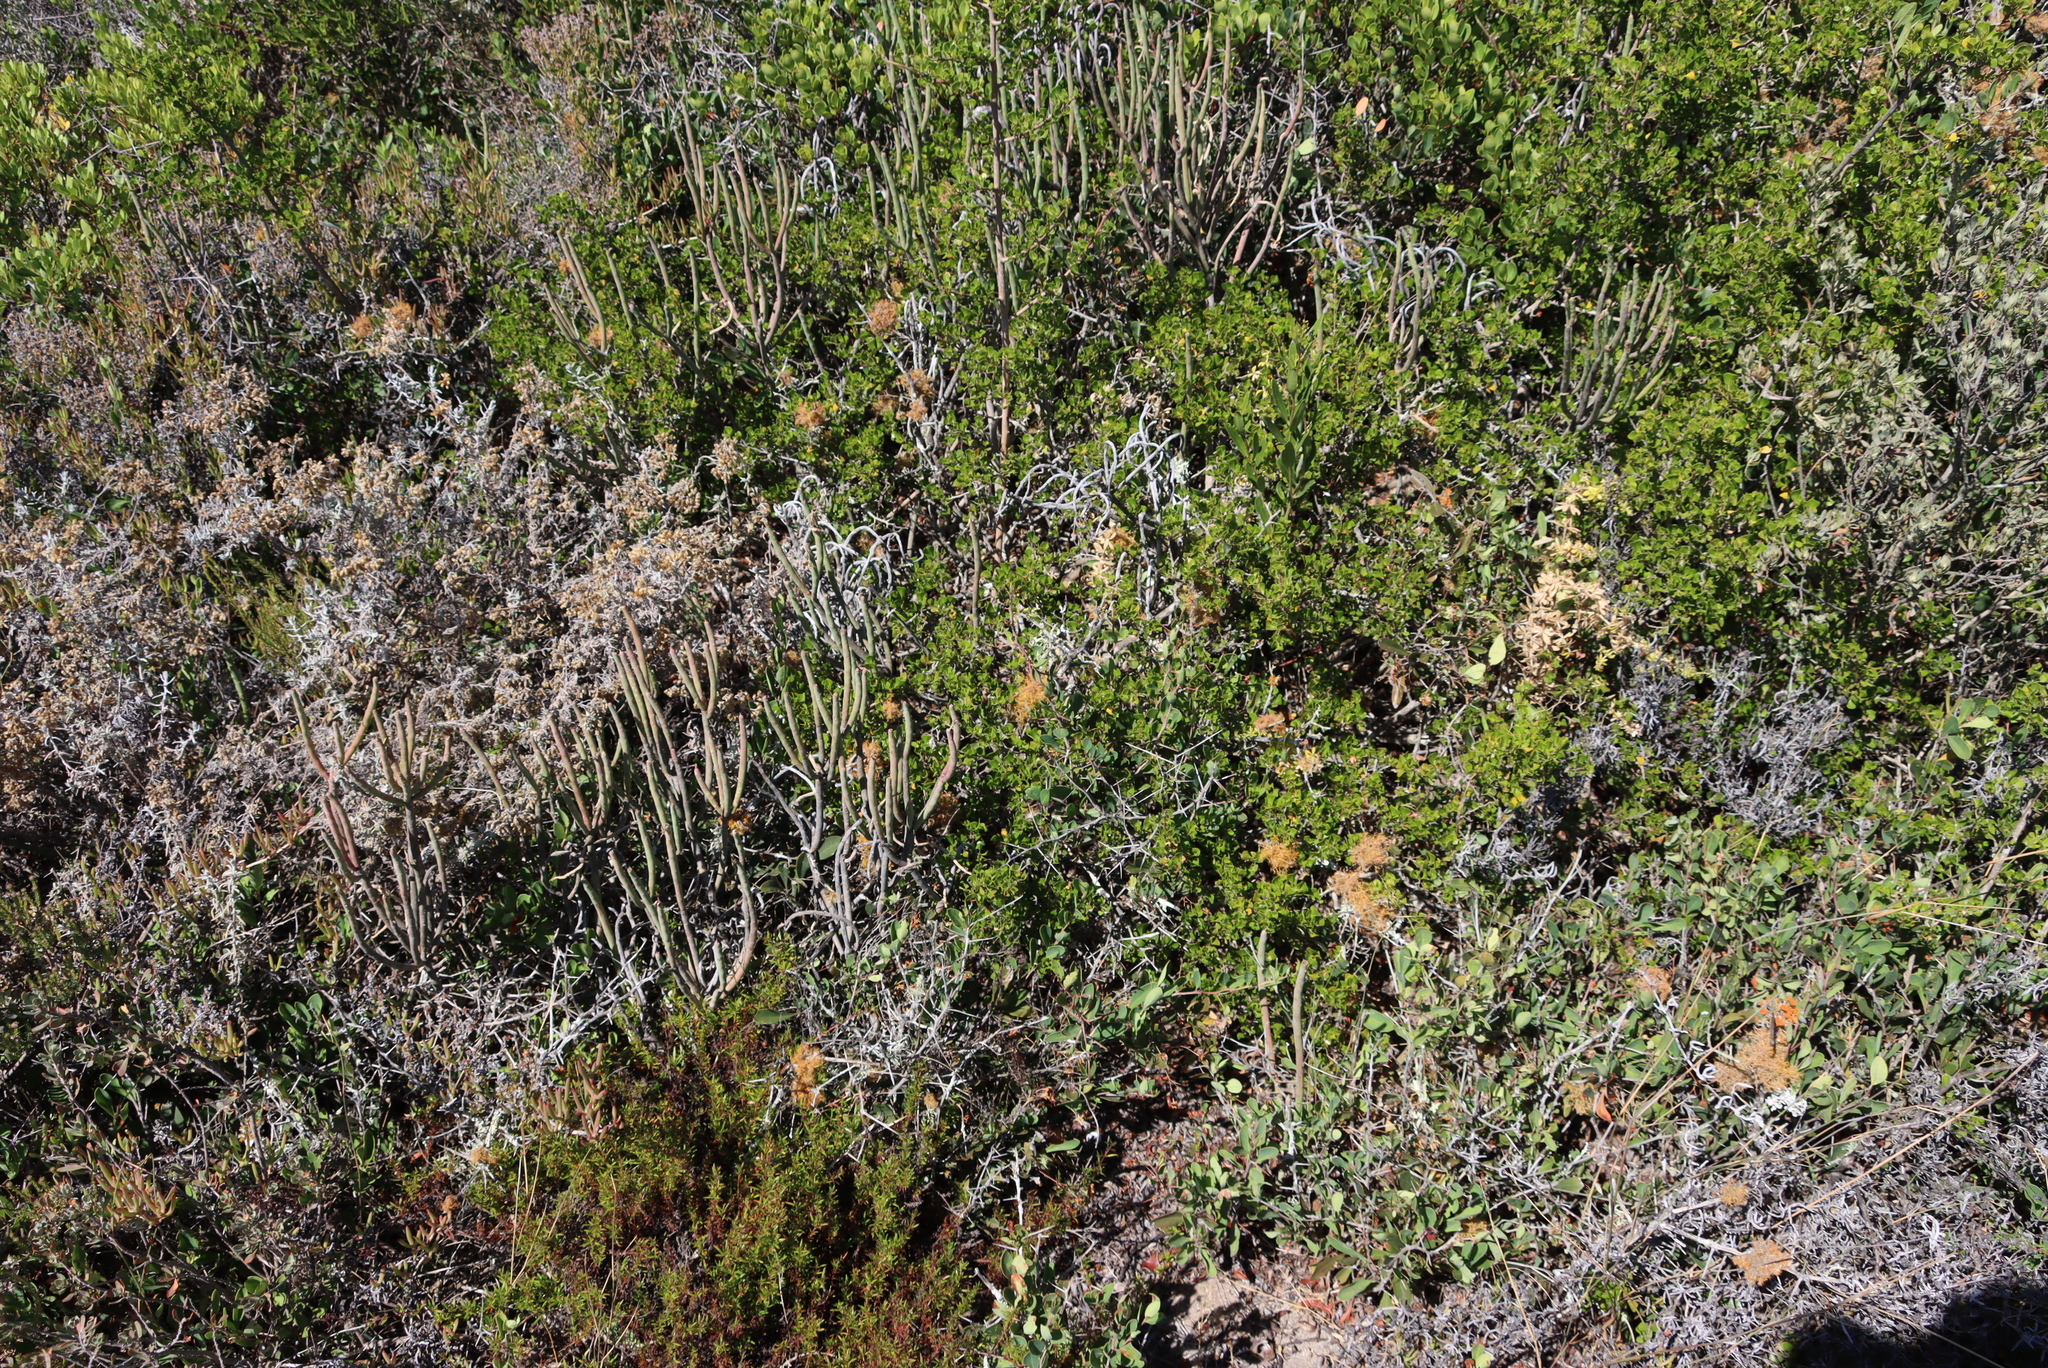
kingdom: Plantae
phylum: Tracheophyta
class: Magnoliopsida
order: Sapindales
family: Anacardiaceae
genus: Searsia
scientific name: Searsia glauca
